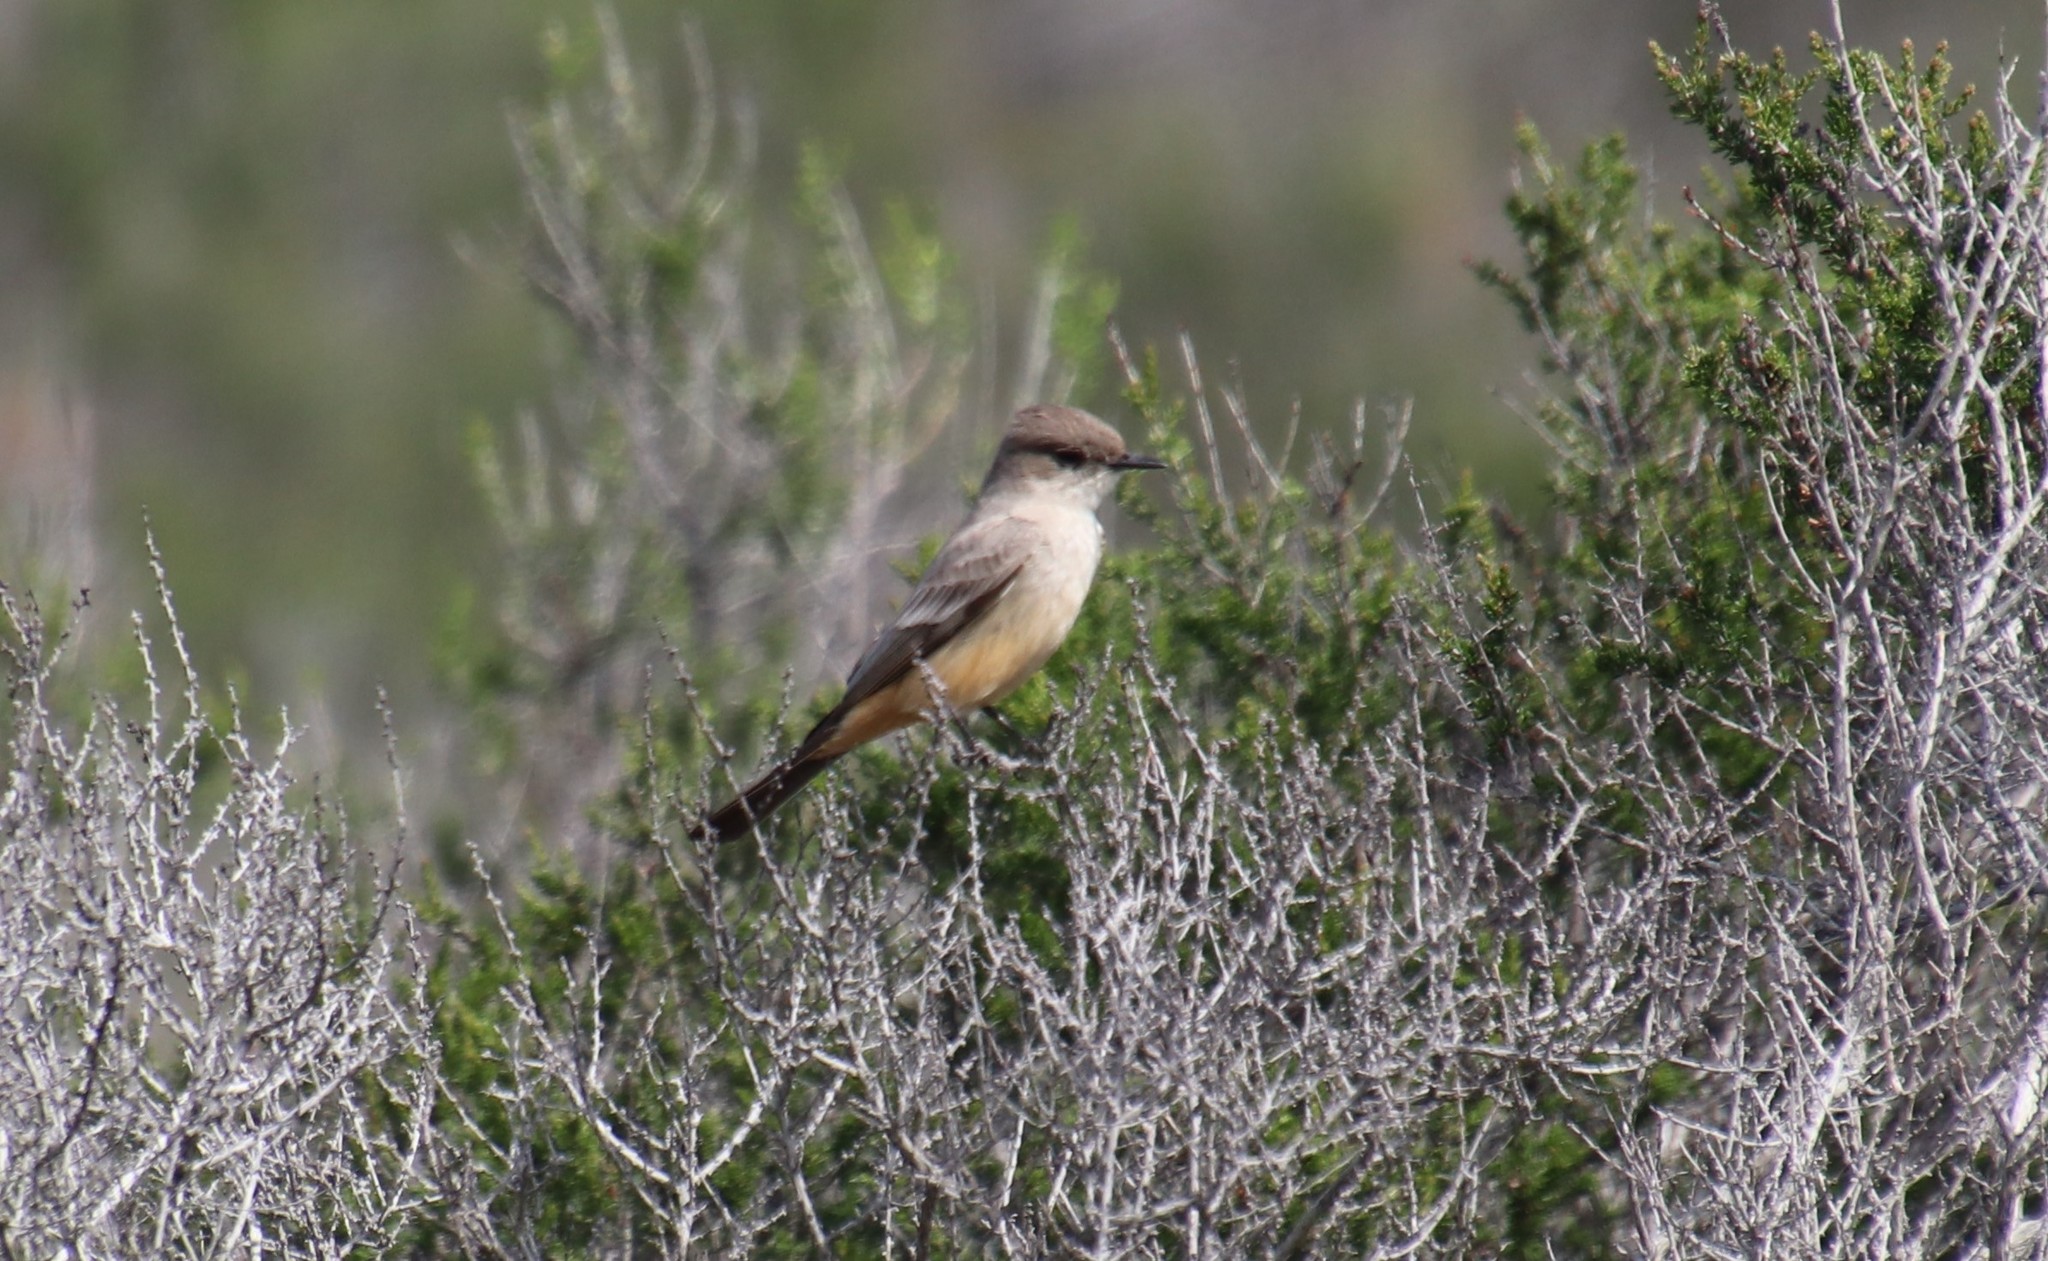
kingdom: Animalia
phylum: Chordata
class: Aves
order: Passeriformes
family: Tyrannidae
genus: Sayornis
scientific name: Sayornis saya
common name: Say's phoebe
